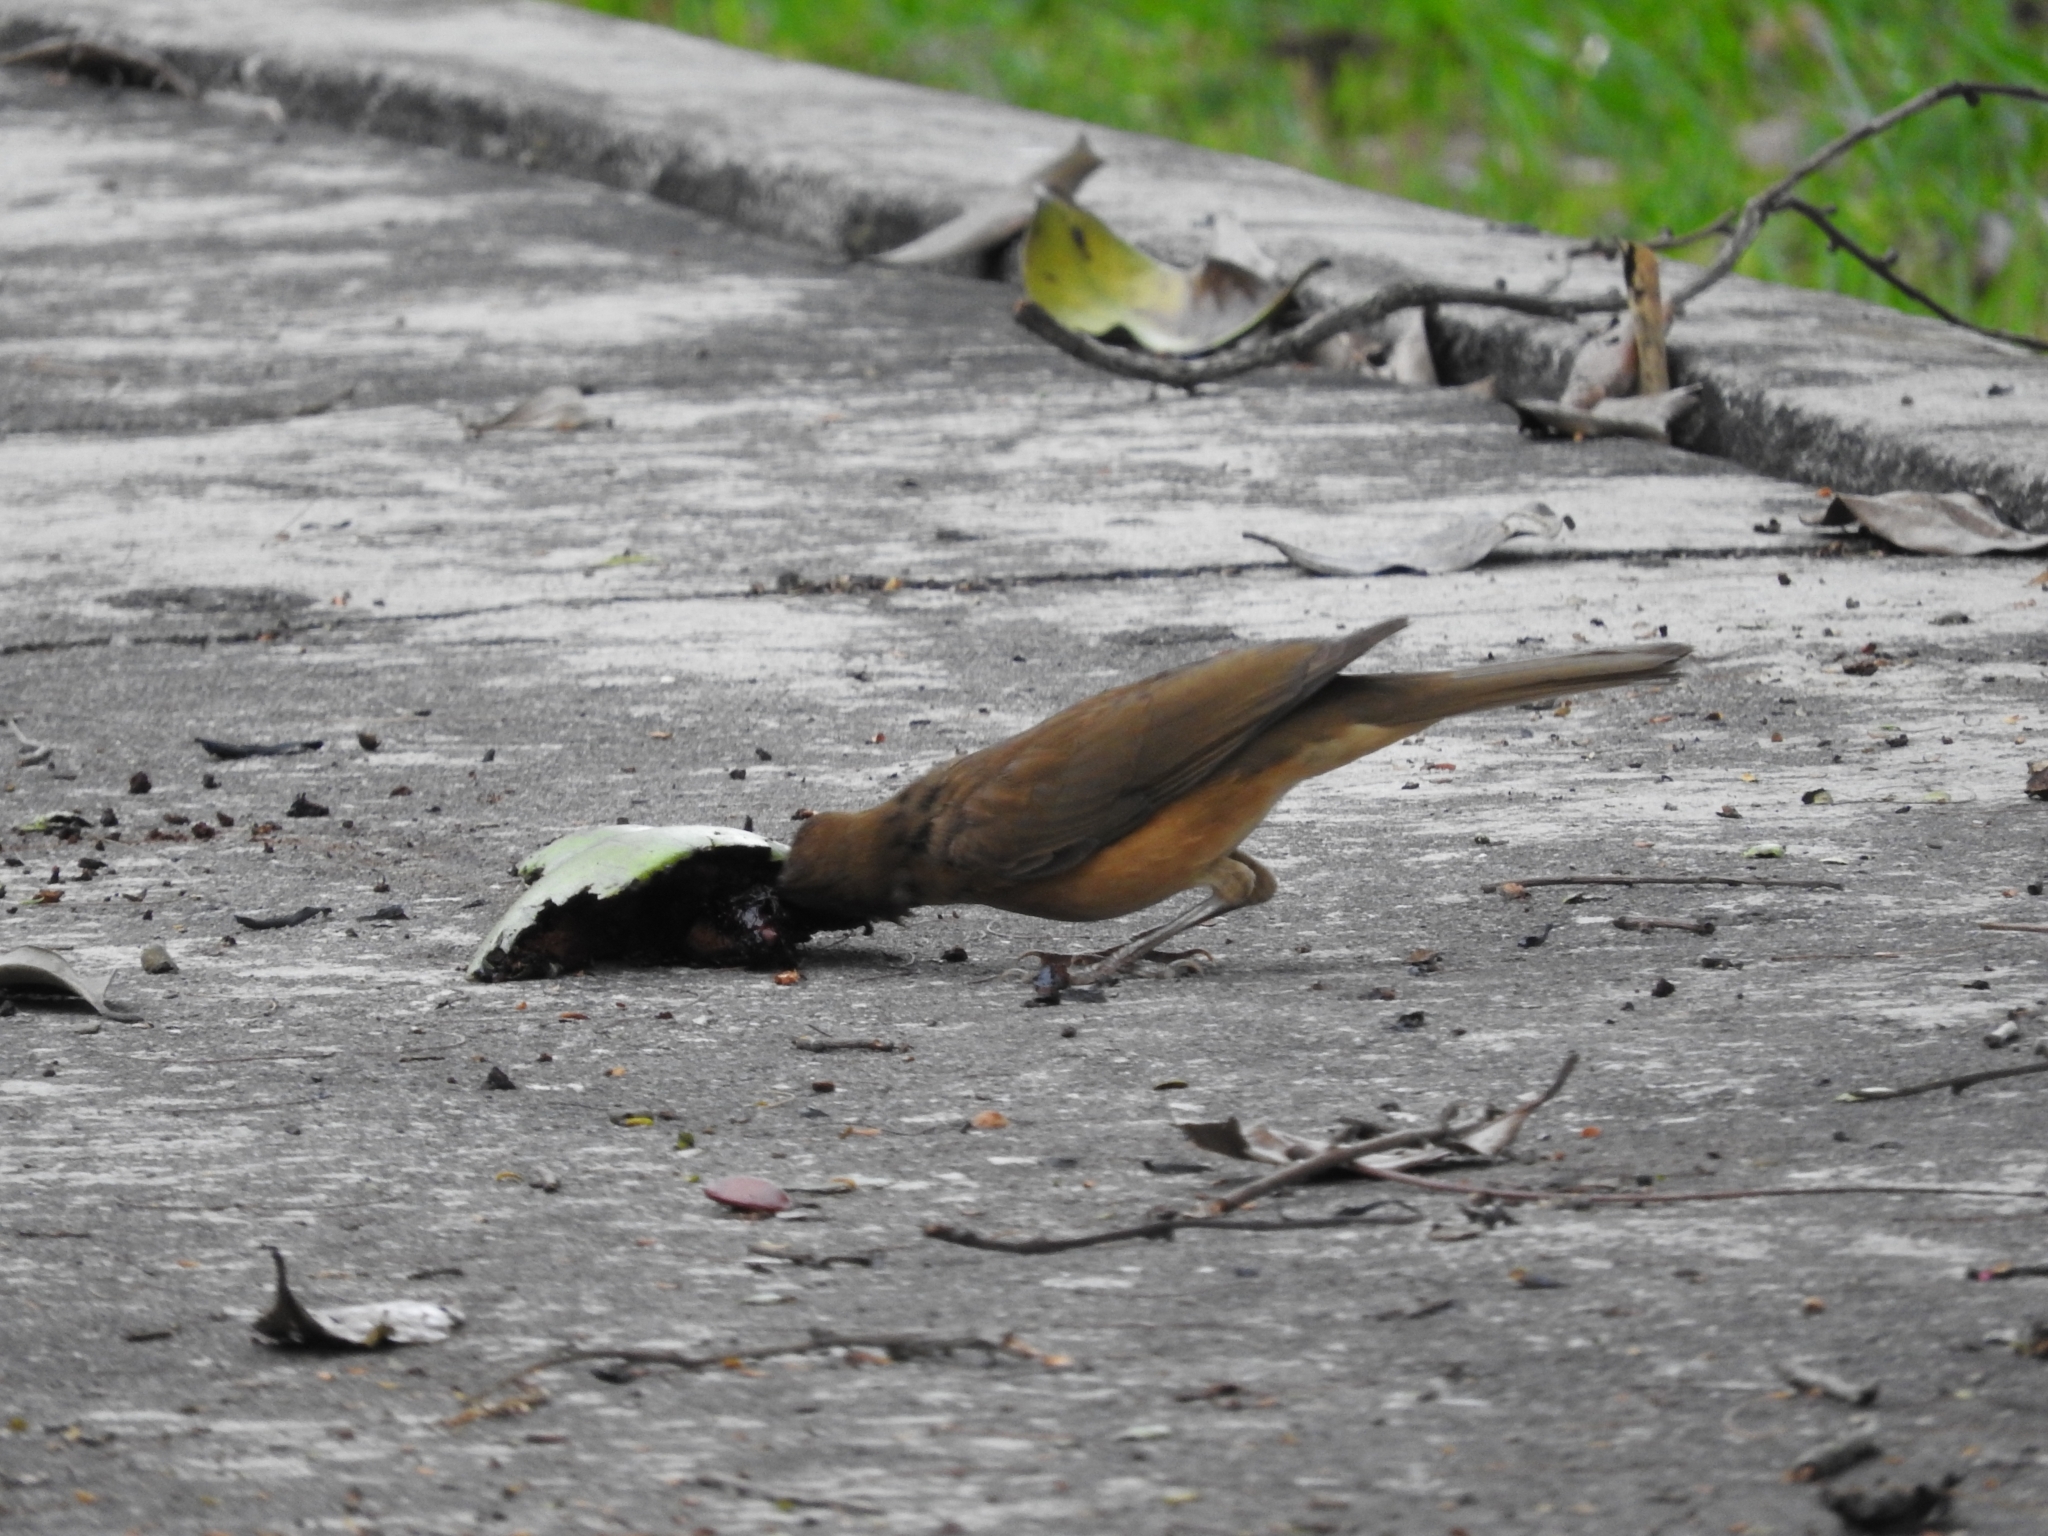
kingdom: Animalia
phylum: Chordata
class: Aves
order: Passeriformes
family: Turdidae
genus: Turdus
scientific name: Turdus grayi
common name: Clay-colored thrush
